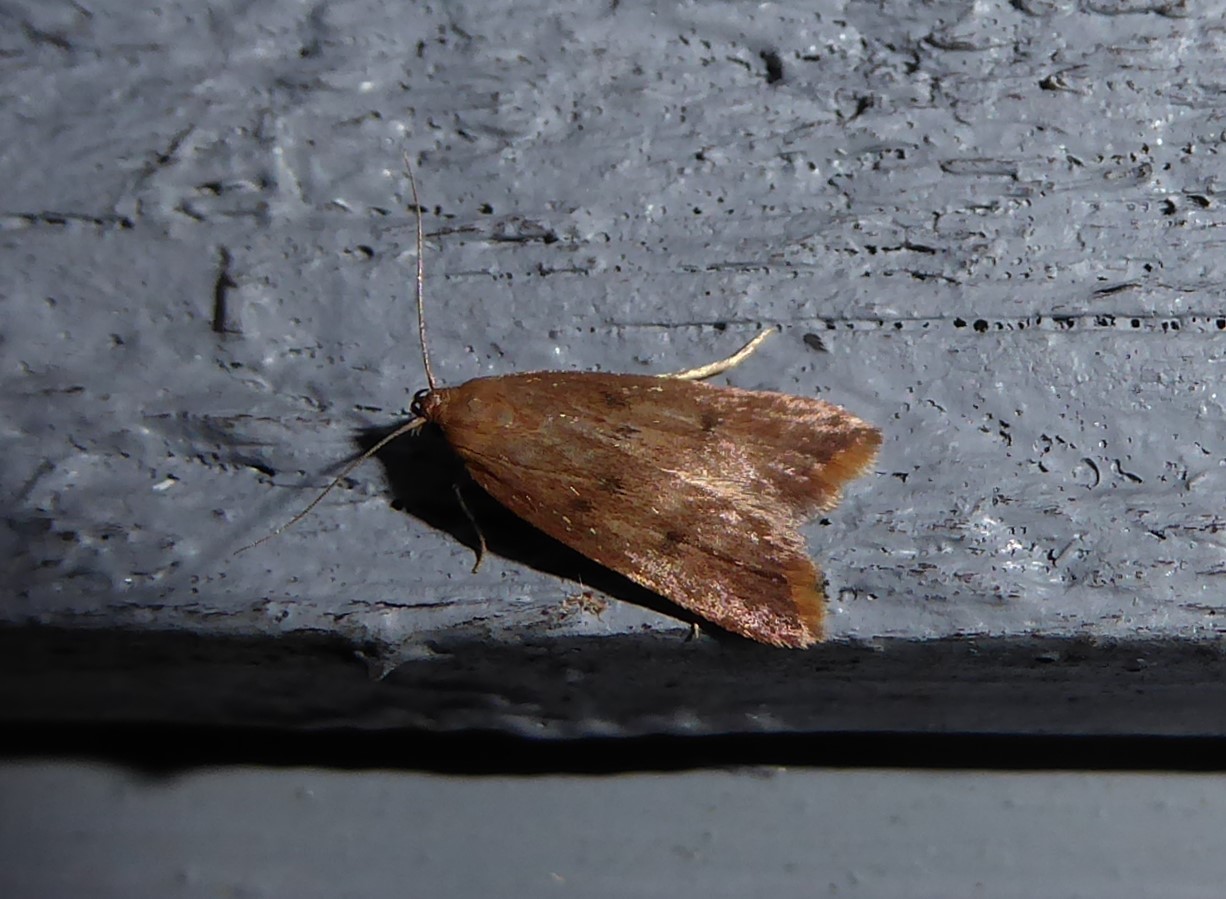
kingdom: Animalia
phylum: Arthropoda
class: Insecta
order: Lepidoptera
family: Oecophoridae
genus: Tachystola
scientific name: Tachystola acroxantha
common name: Ruddy streak
